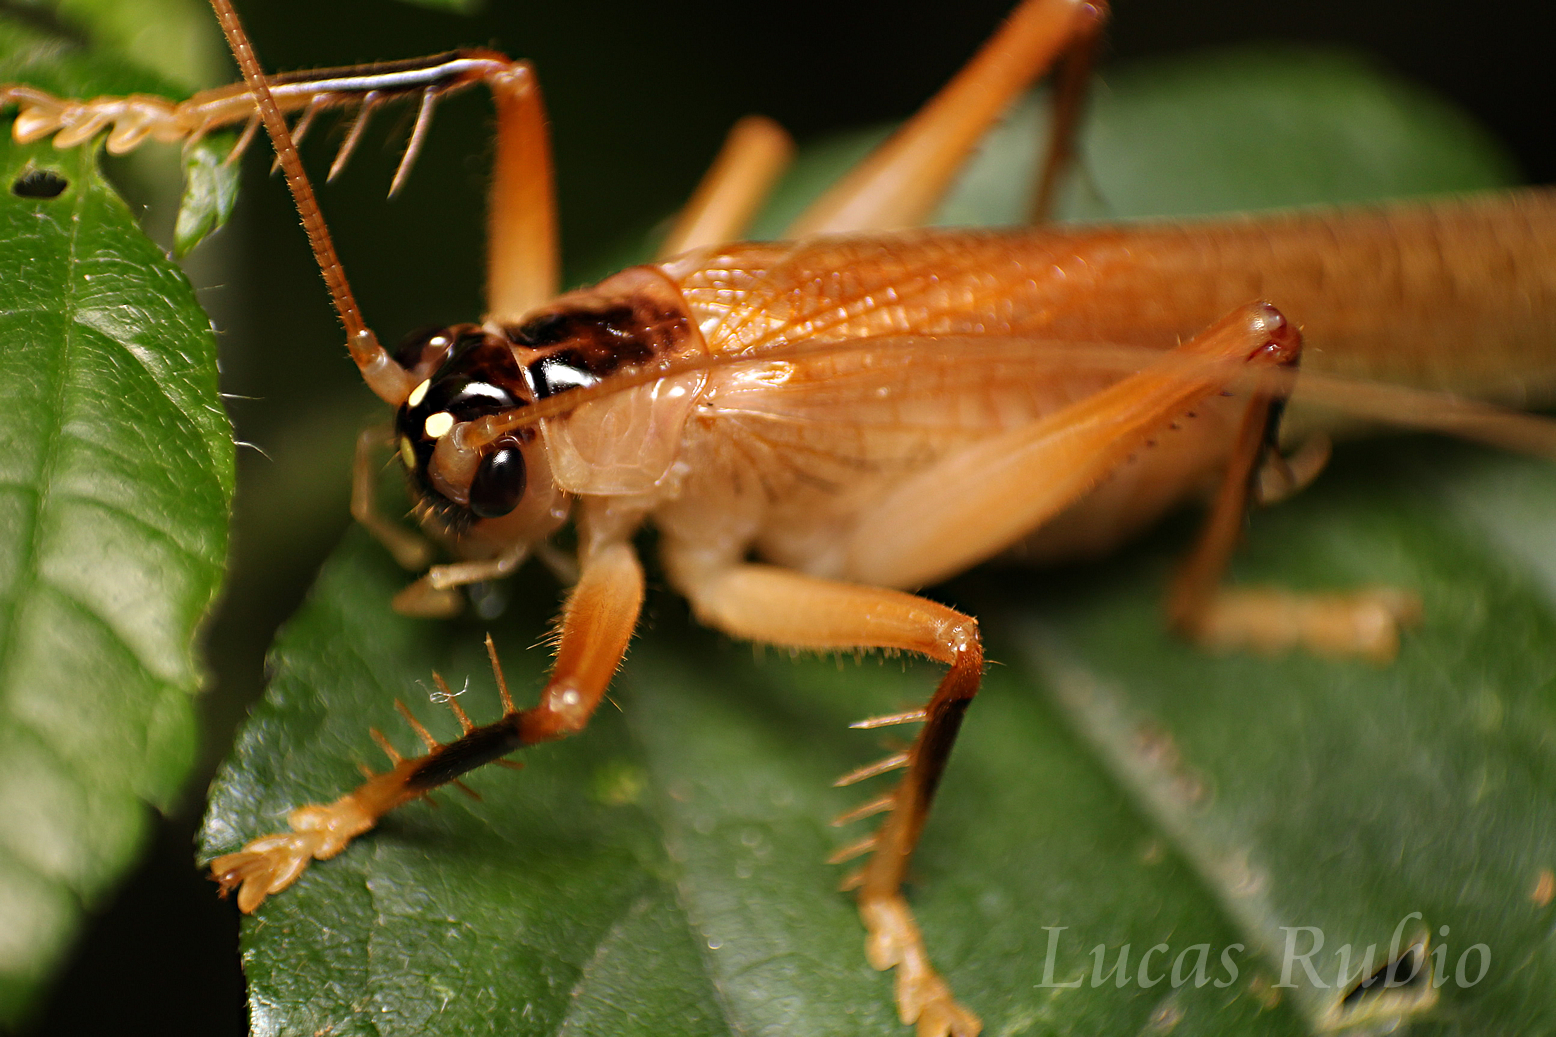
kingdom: Animalia
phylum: Arthropoda
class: Insecta
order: Orthoptera
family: Gryllacrididae
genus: Dibelona
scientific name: Dibelona brasiliensis
